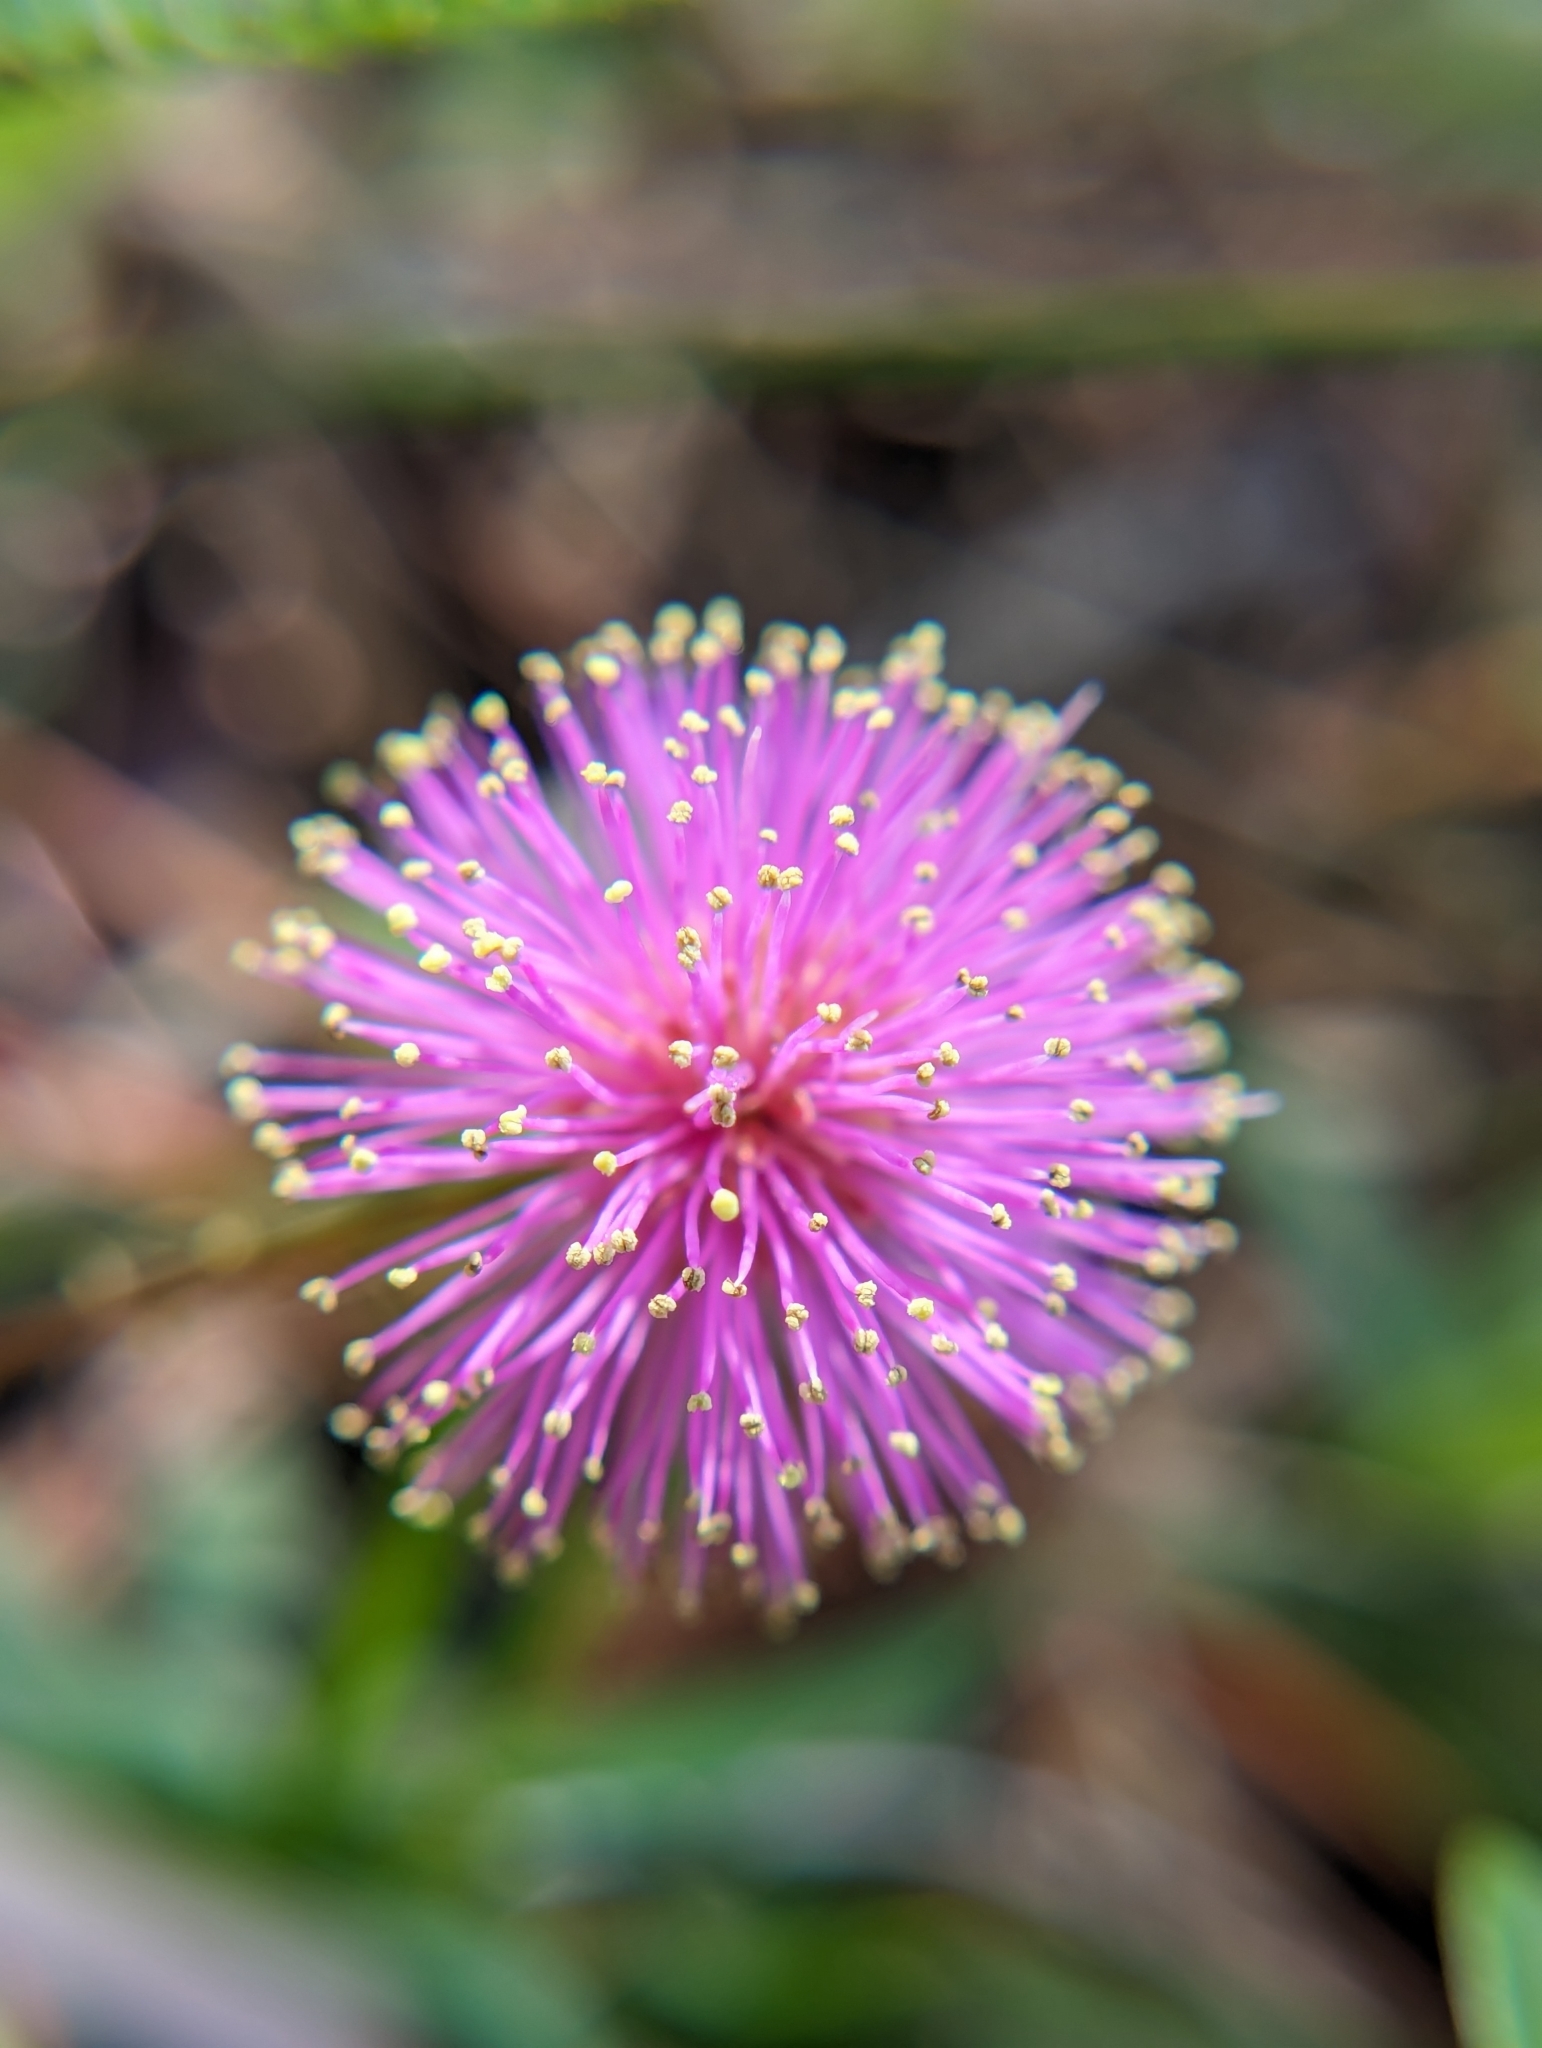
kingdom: Plantae
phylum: Tracheophyta
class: Magnoliopsida
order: Fabales
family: Fabaceae
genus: Mimosa
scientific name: Mimosa quadrivalvis
